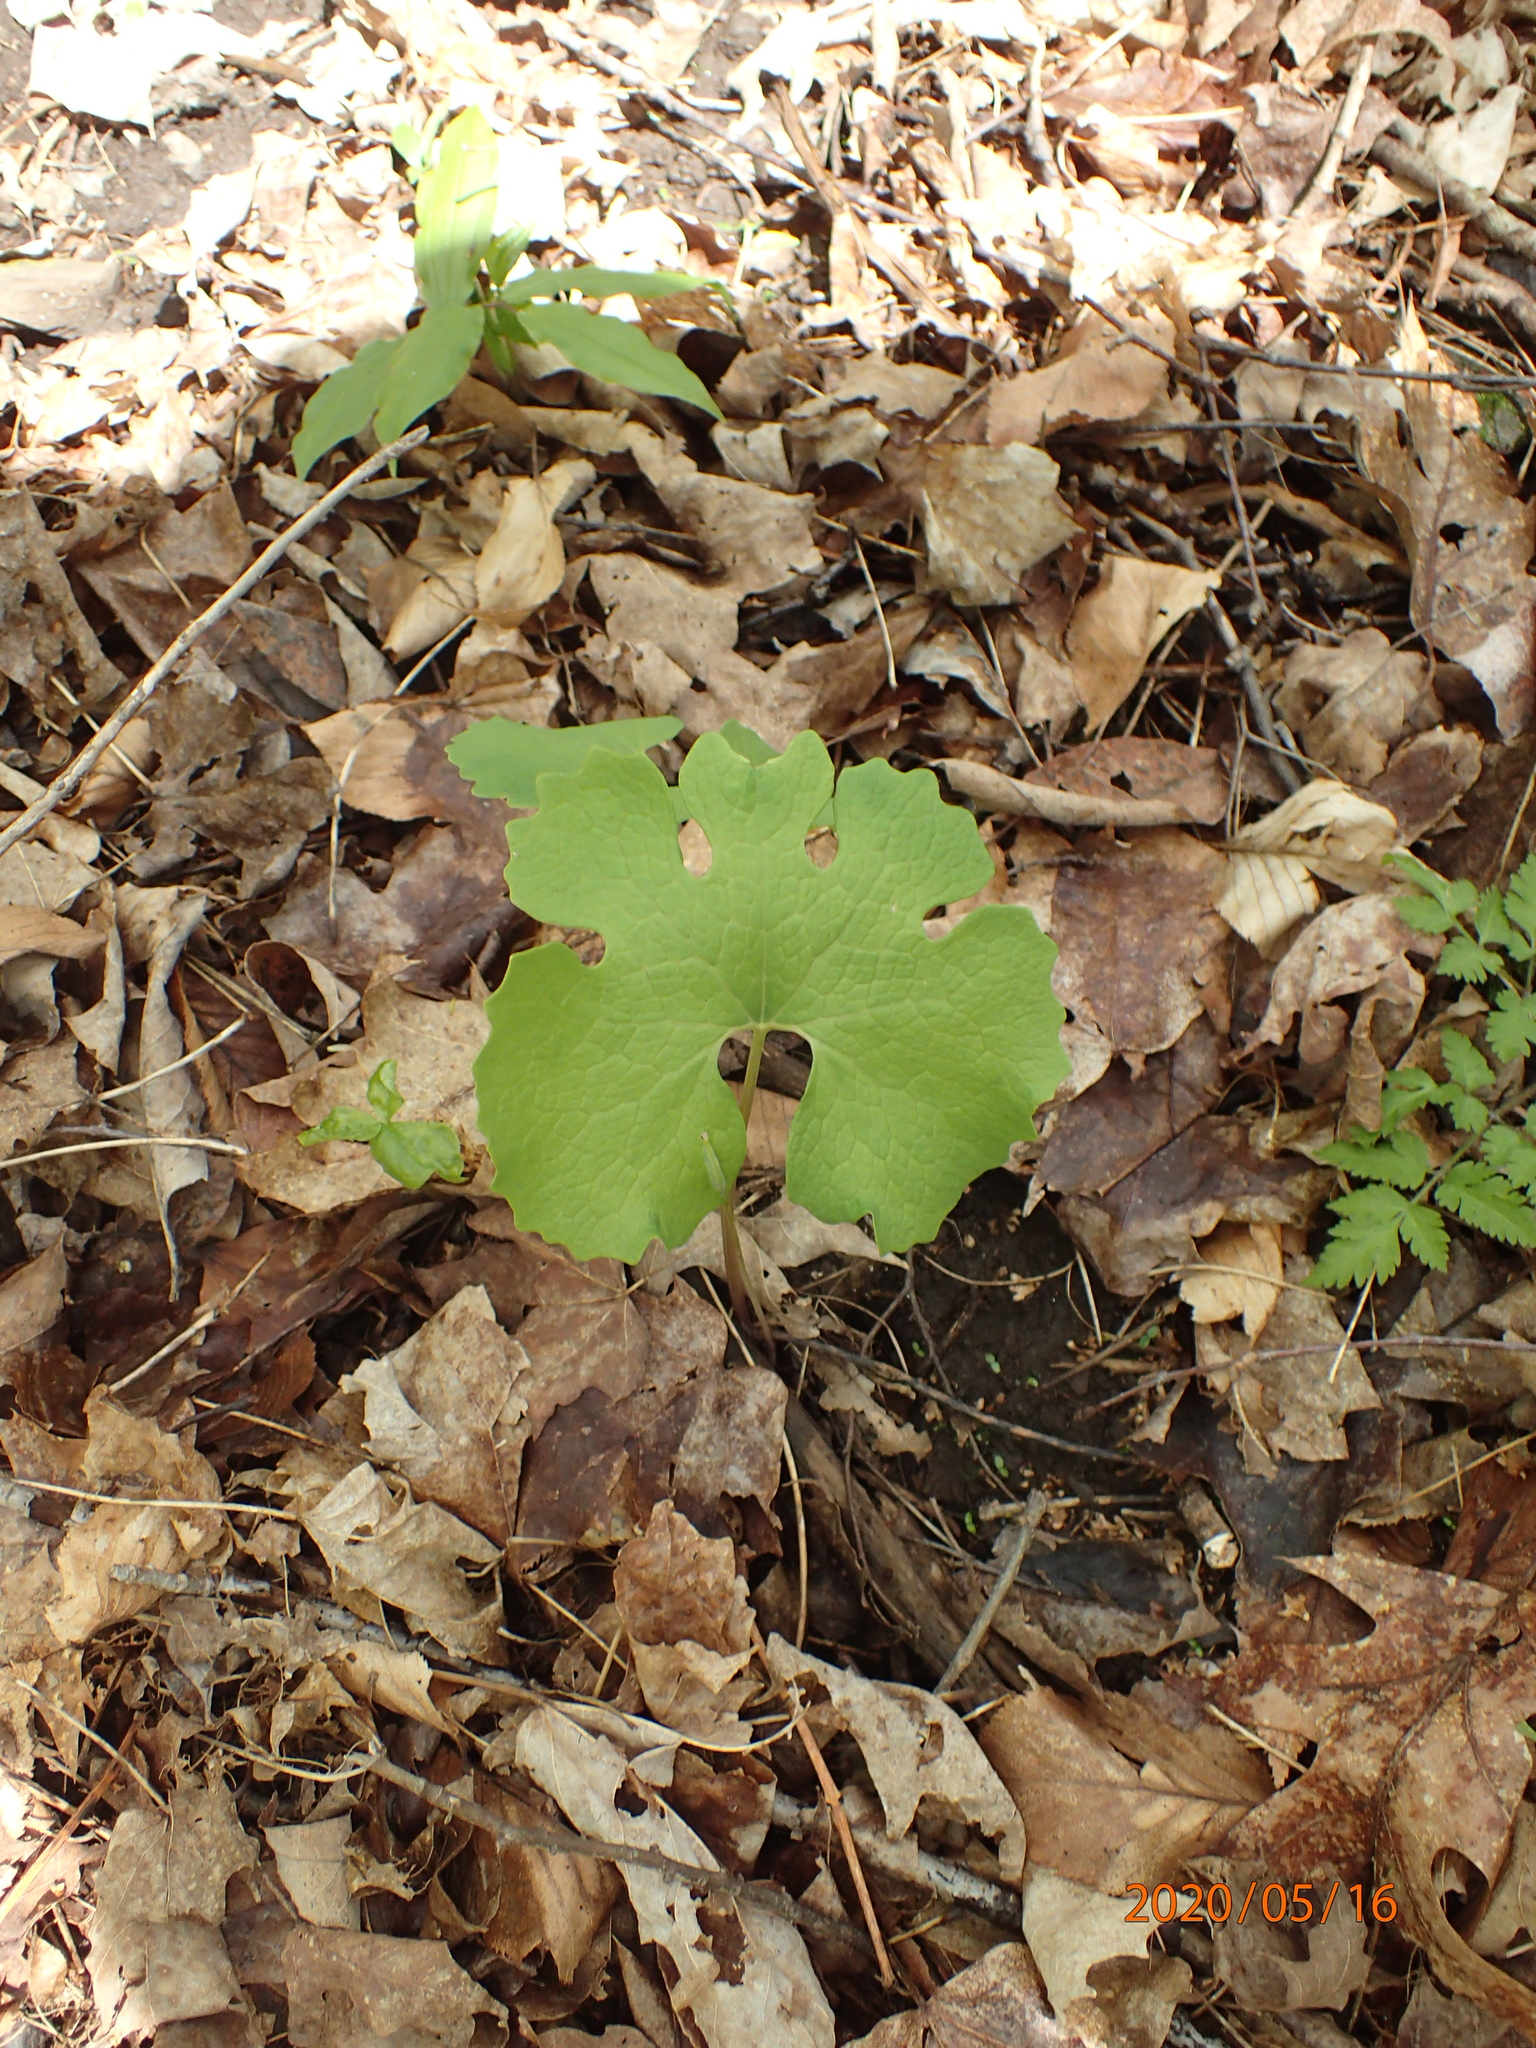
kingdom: Plantae
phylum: Tracheophyta
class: Magnoliopsida
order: Ranunculales
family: Papaveraceae
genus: Sanguinaria
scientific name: Sanguinaria canadensis
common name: Bloodroot
